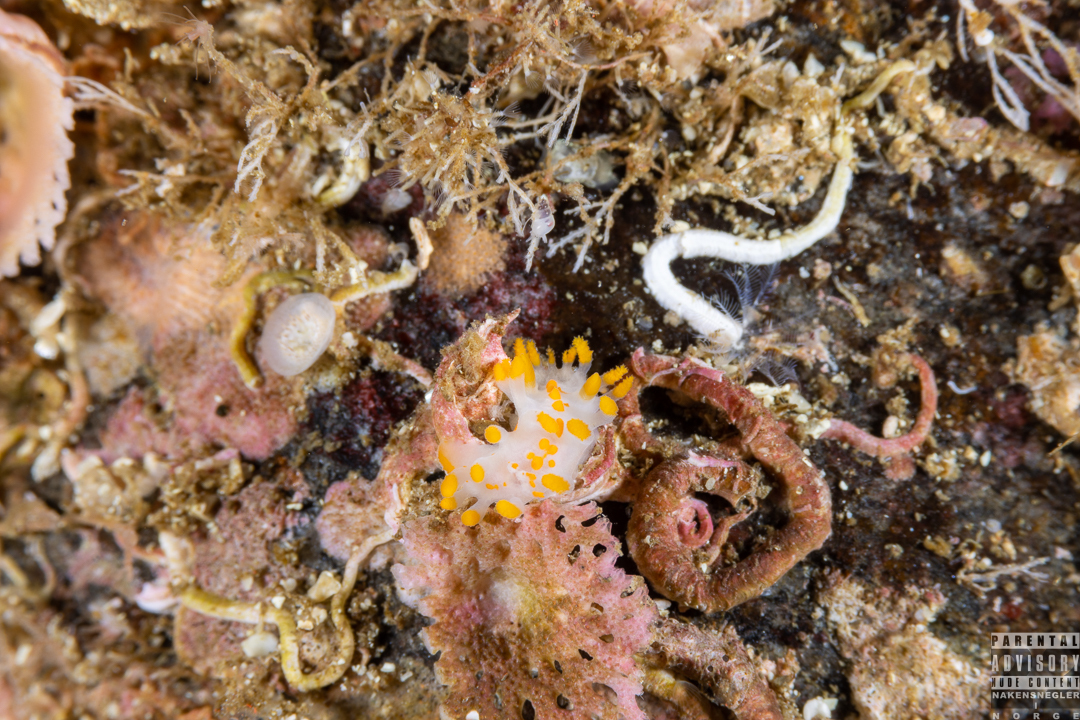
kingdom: Animalia
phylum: Mollusca
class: Gastropoda
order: Nudibranchia
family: Polyceridae
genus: Limacia
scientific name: Limacia clavigera
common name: Orange-clubbed sea slug
